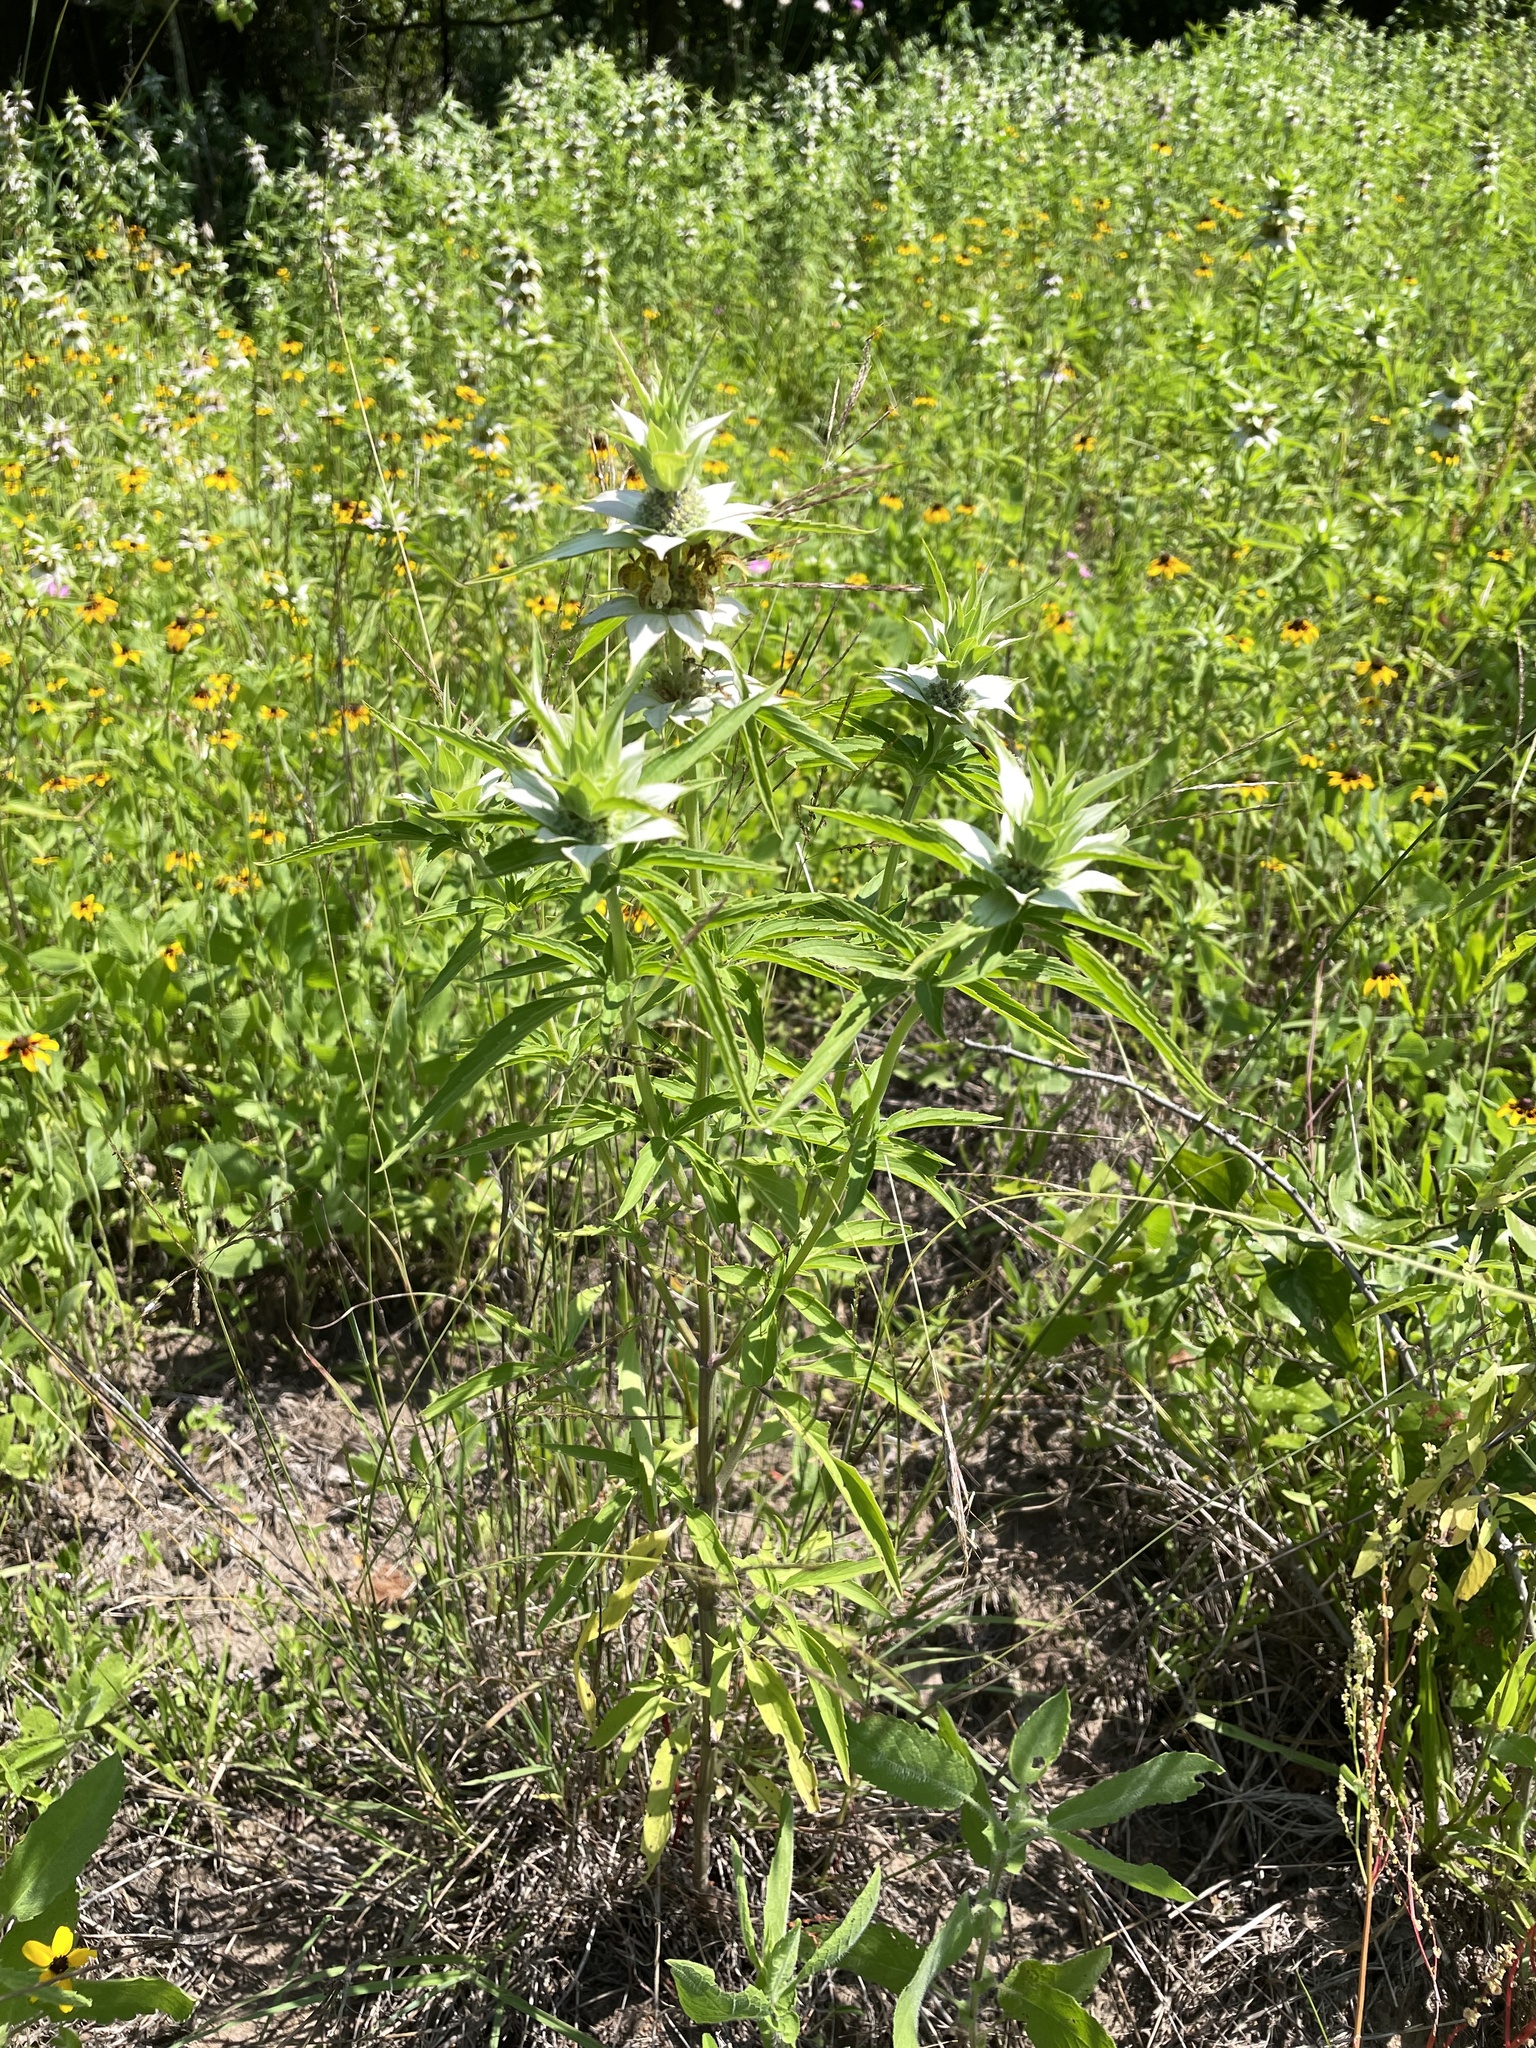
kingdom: Plantae
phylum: Tracheophyta
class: Magnoliopsida
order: Lamiales
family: Lamiaceae
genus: Monarda
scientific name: Monarda punctata
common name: Dotted monarda
